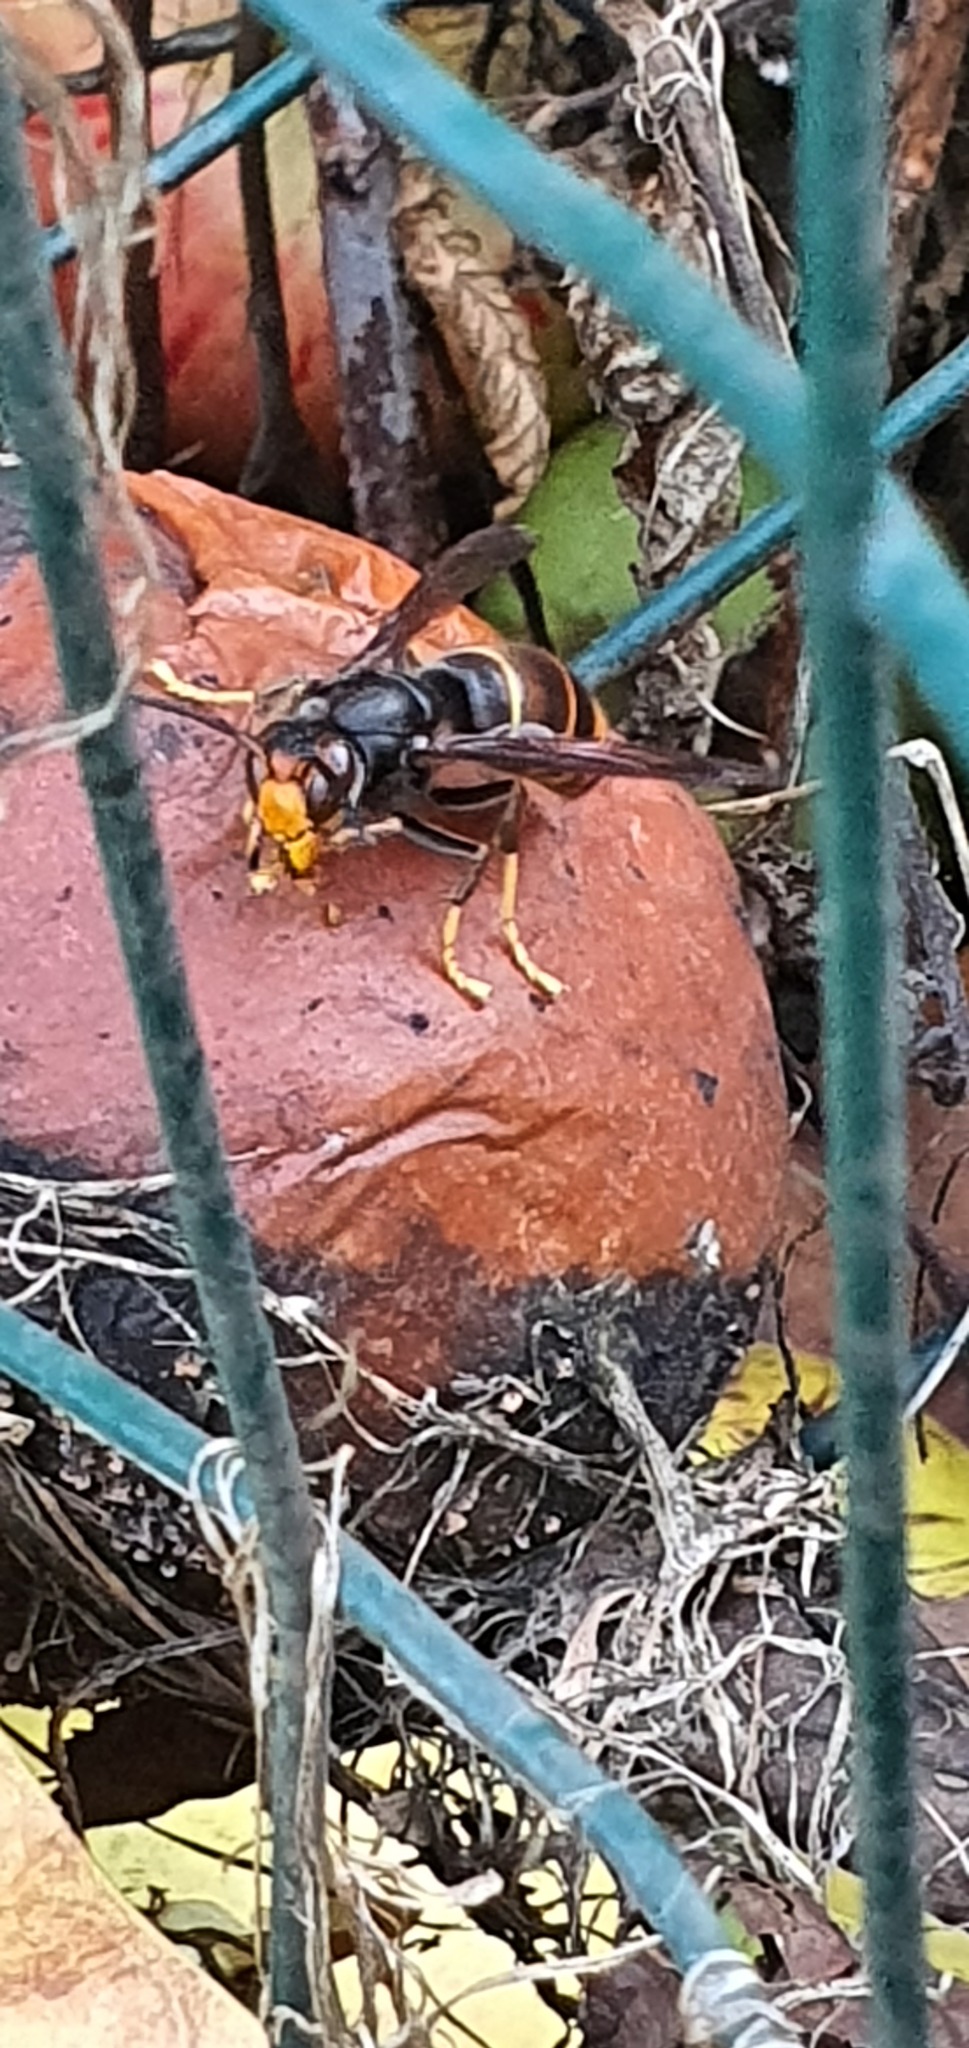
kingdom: Animalia
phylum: Arthropoda
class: Insecta
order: Hymenoptera
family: Vespidae
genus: Vespa
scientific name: Vespa velutina
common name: Asian hornet
